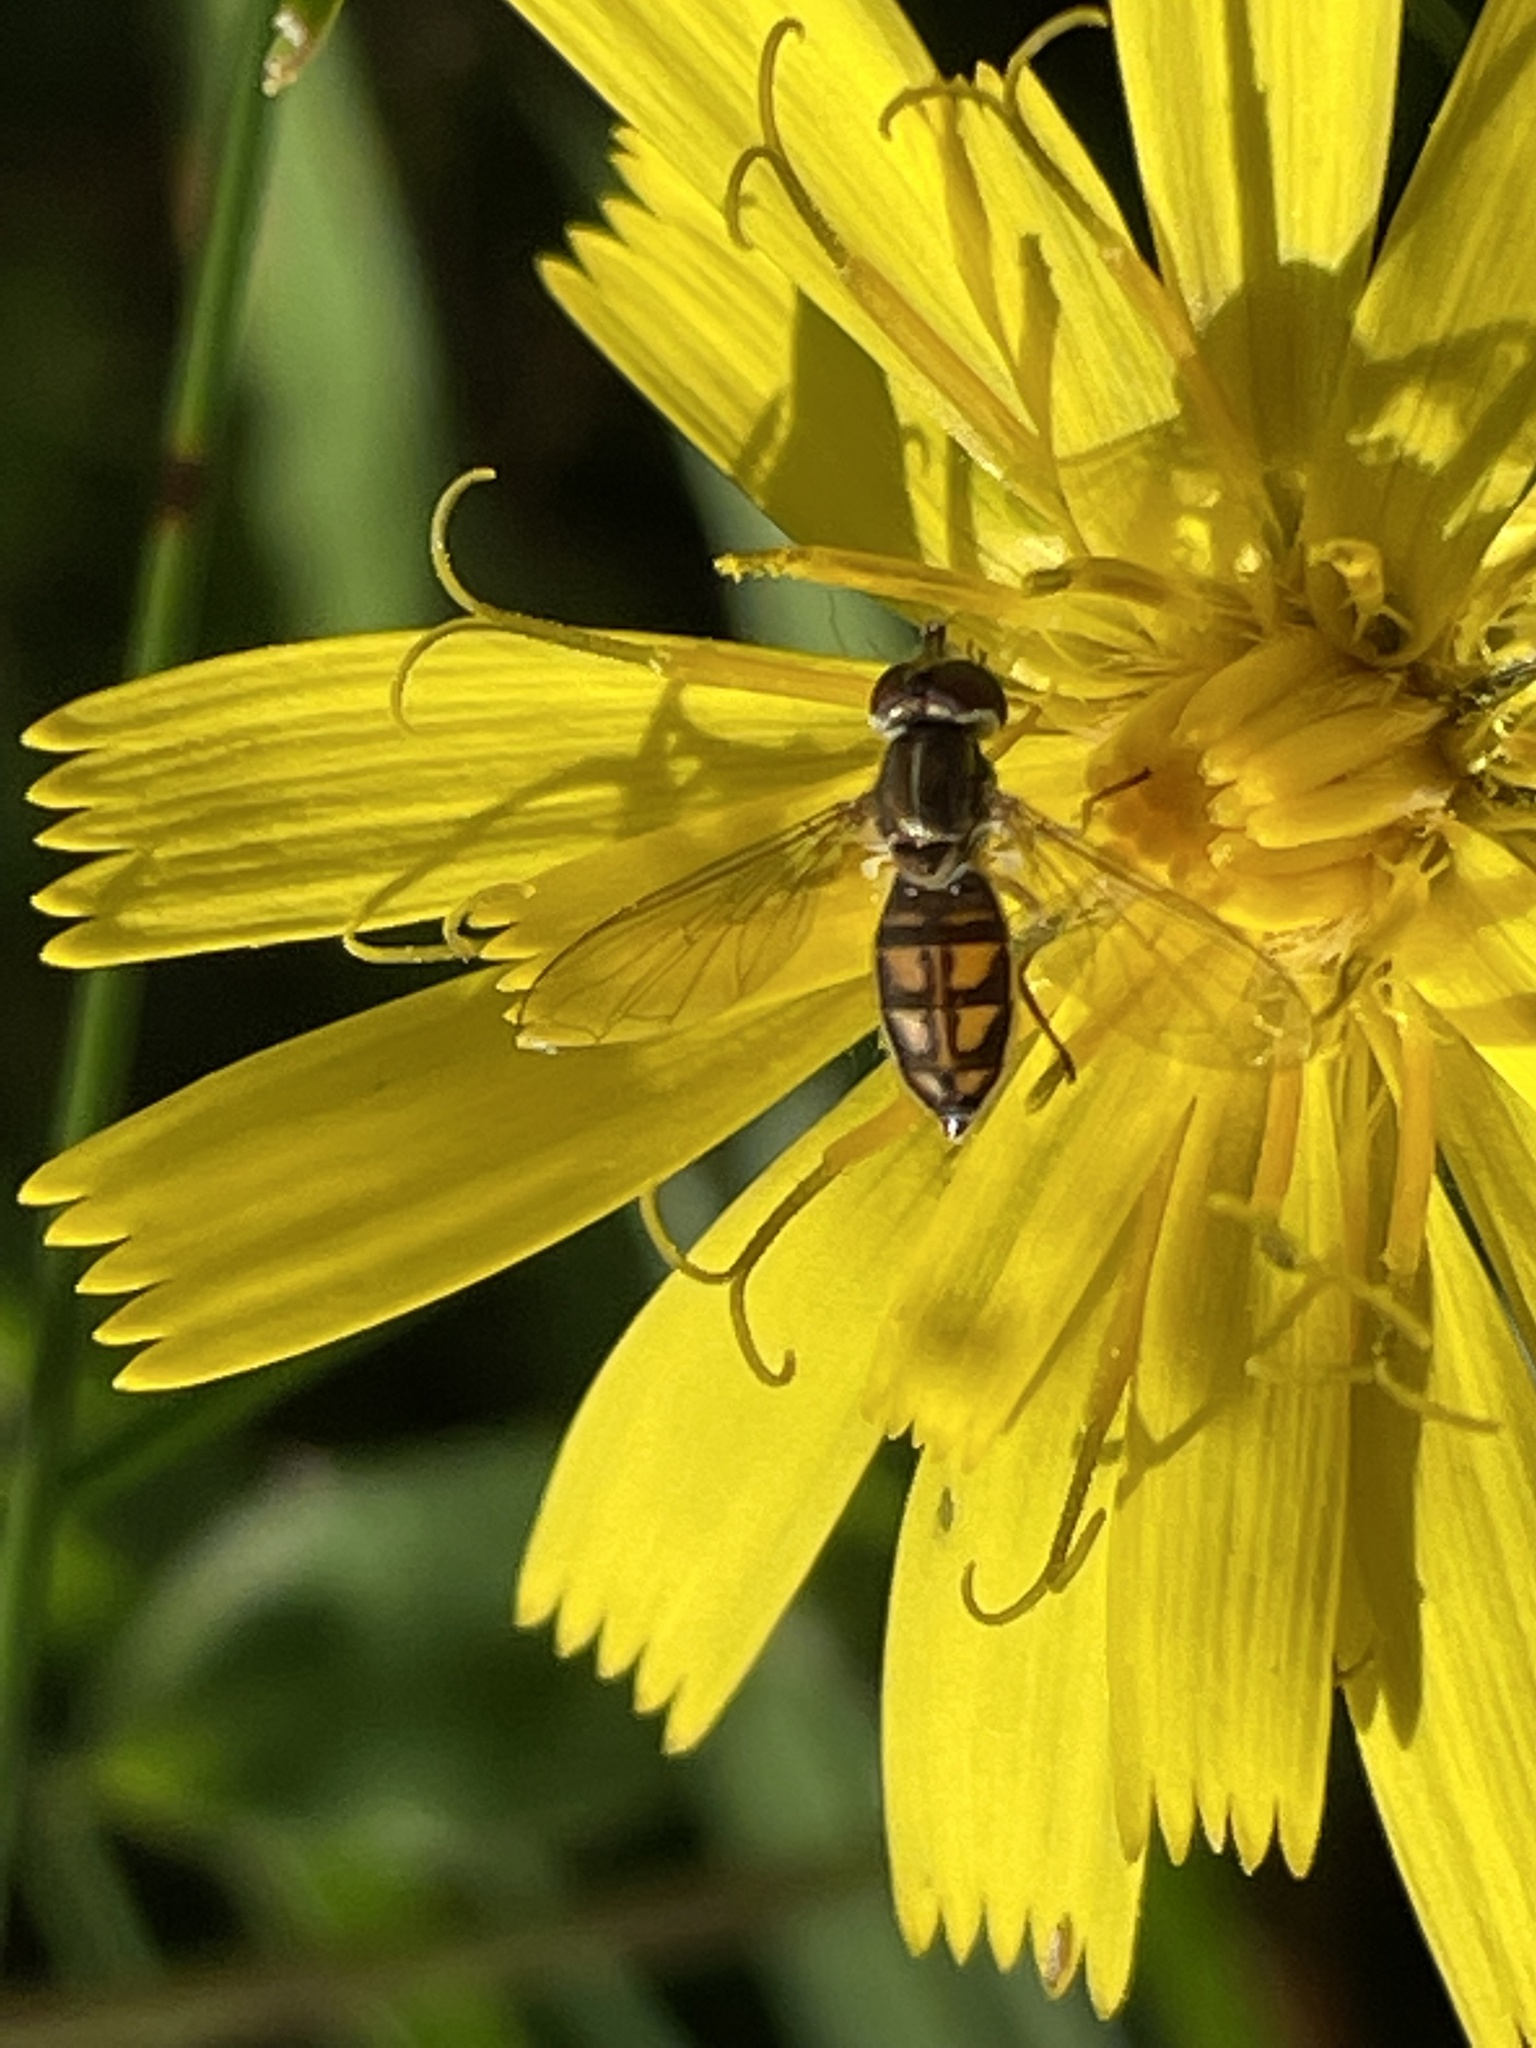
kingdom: Animalia
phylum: Arthropoda
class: Insecta
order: Diptera
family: Syrphidae
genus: Toxomerus
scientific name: Toxomerus marginatus
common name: Syrphid fly
